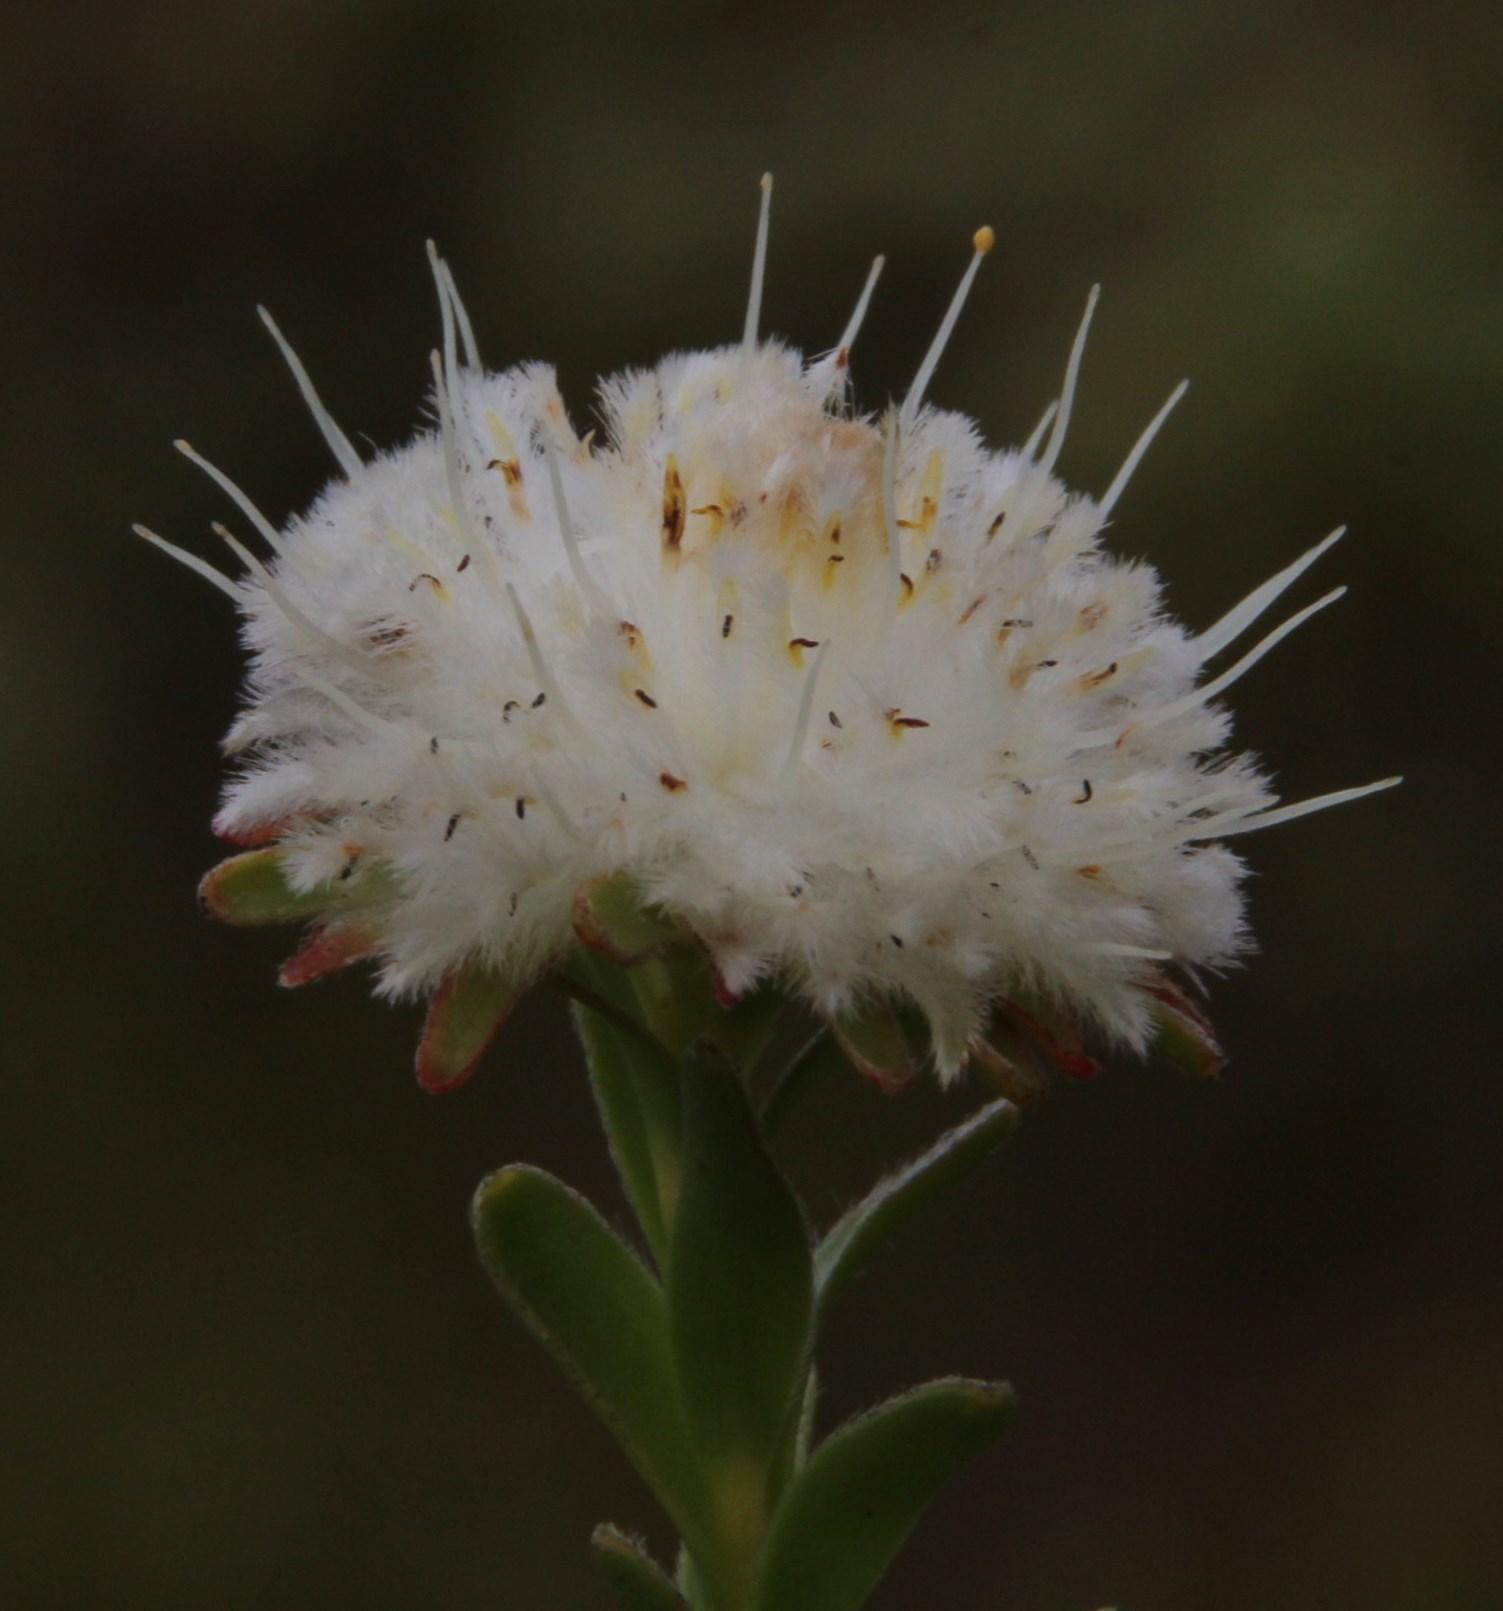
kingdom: Plantae
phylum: Tracheophyta
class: Magnoliopsida
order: Proteales
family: Proteaceae
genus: Diastella
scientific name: Diastella thymelaeoides
